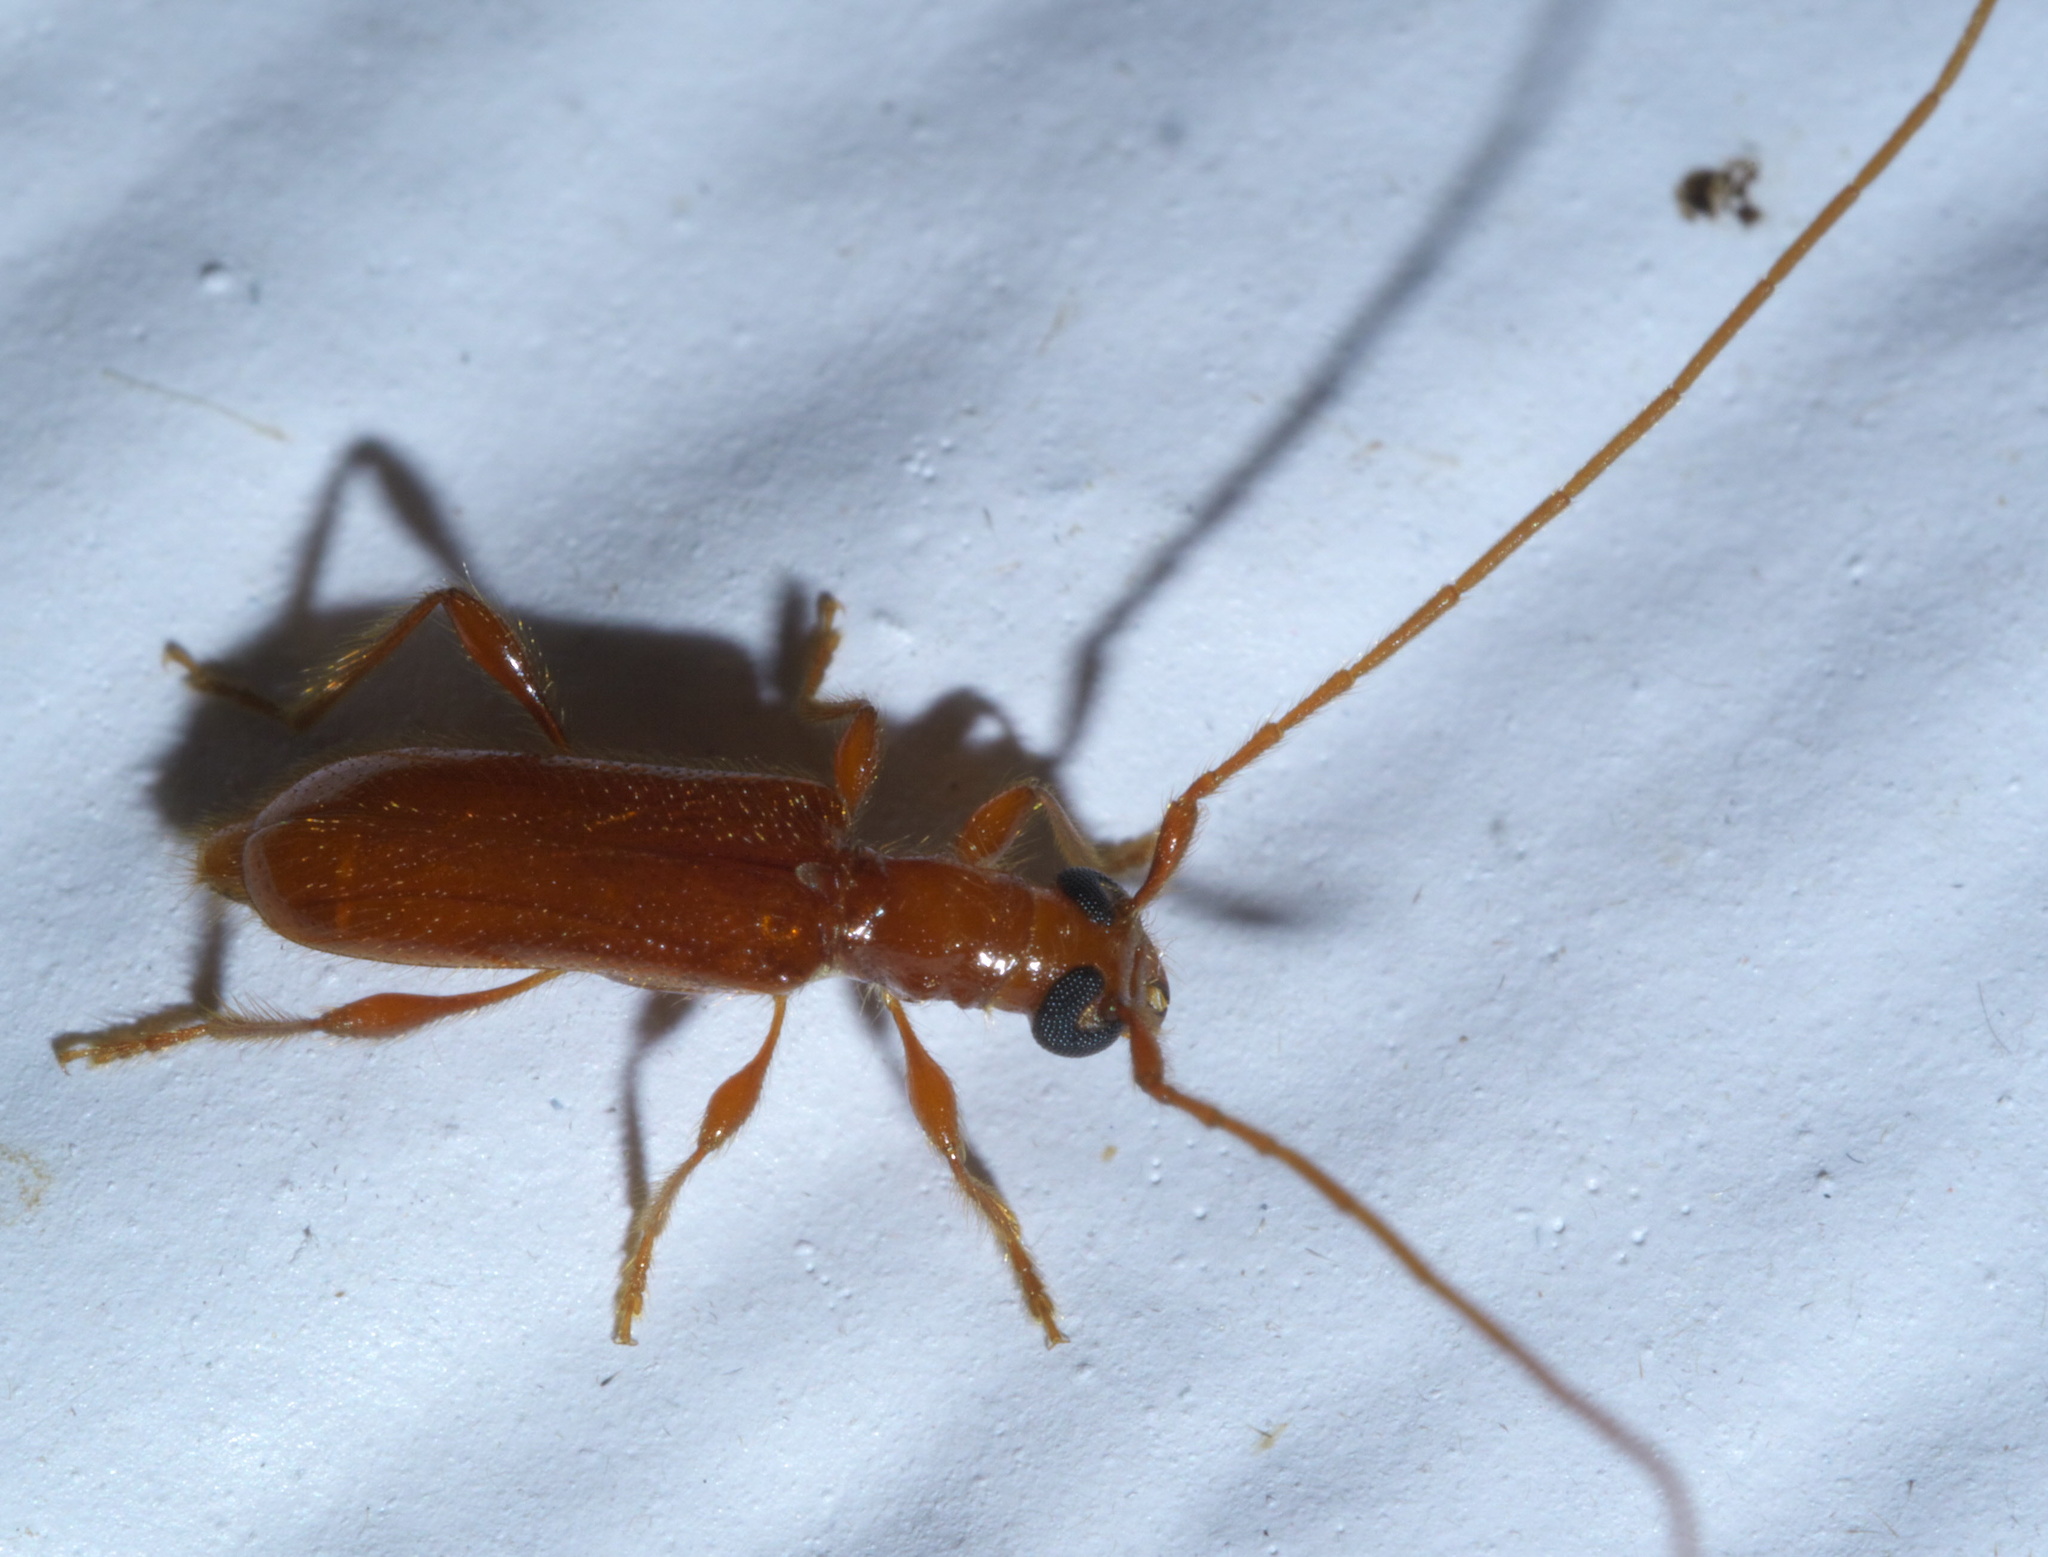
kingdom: Animalia
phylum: Arthropoda
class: Insecta
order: Coleoptera
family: Cerambycidae
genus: Obrium
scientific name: Obrium rufulum
